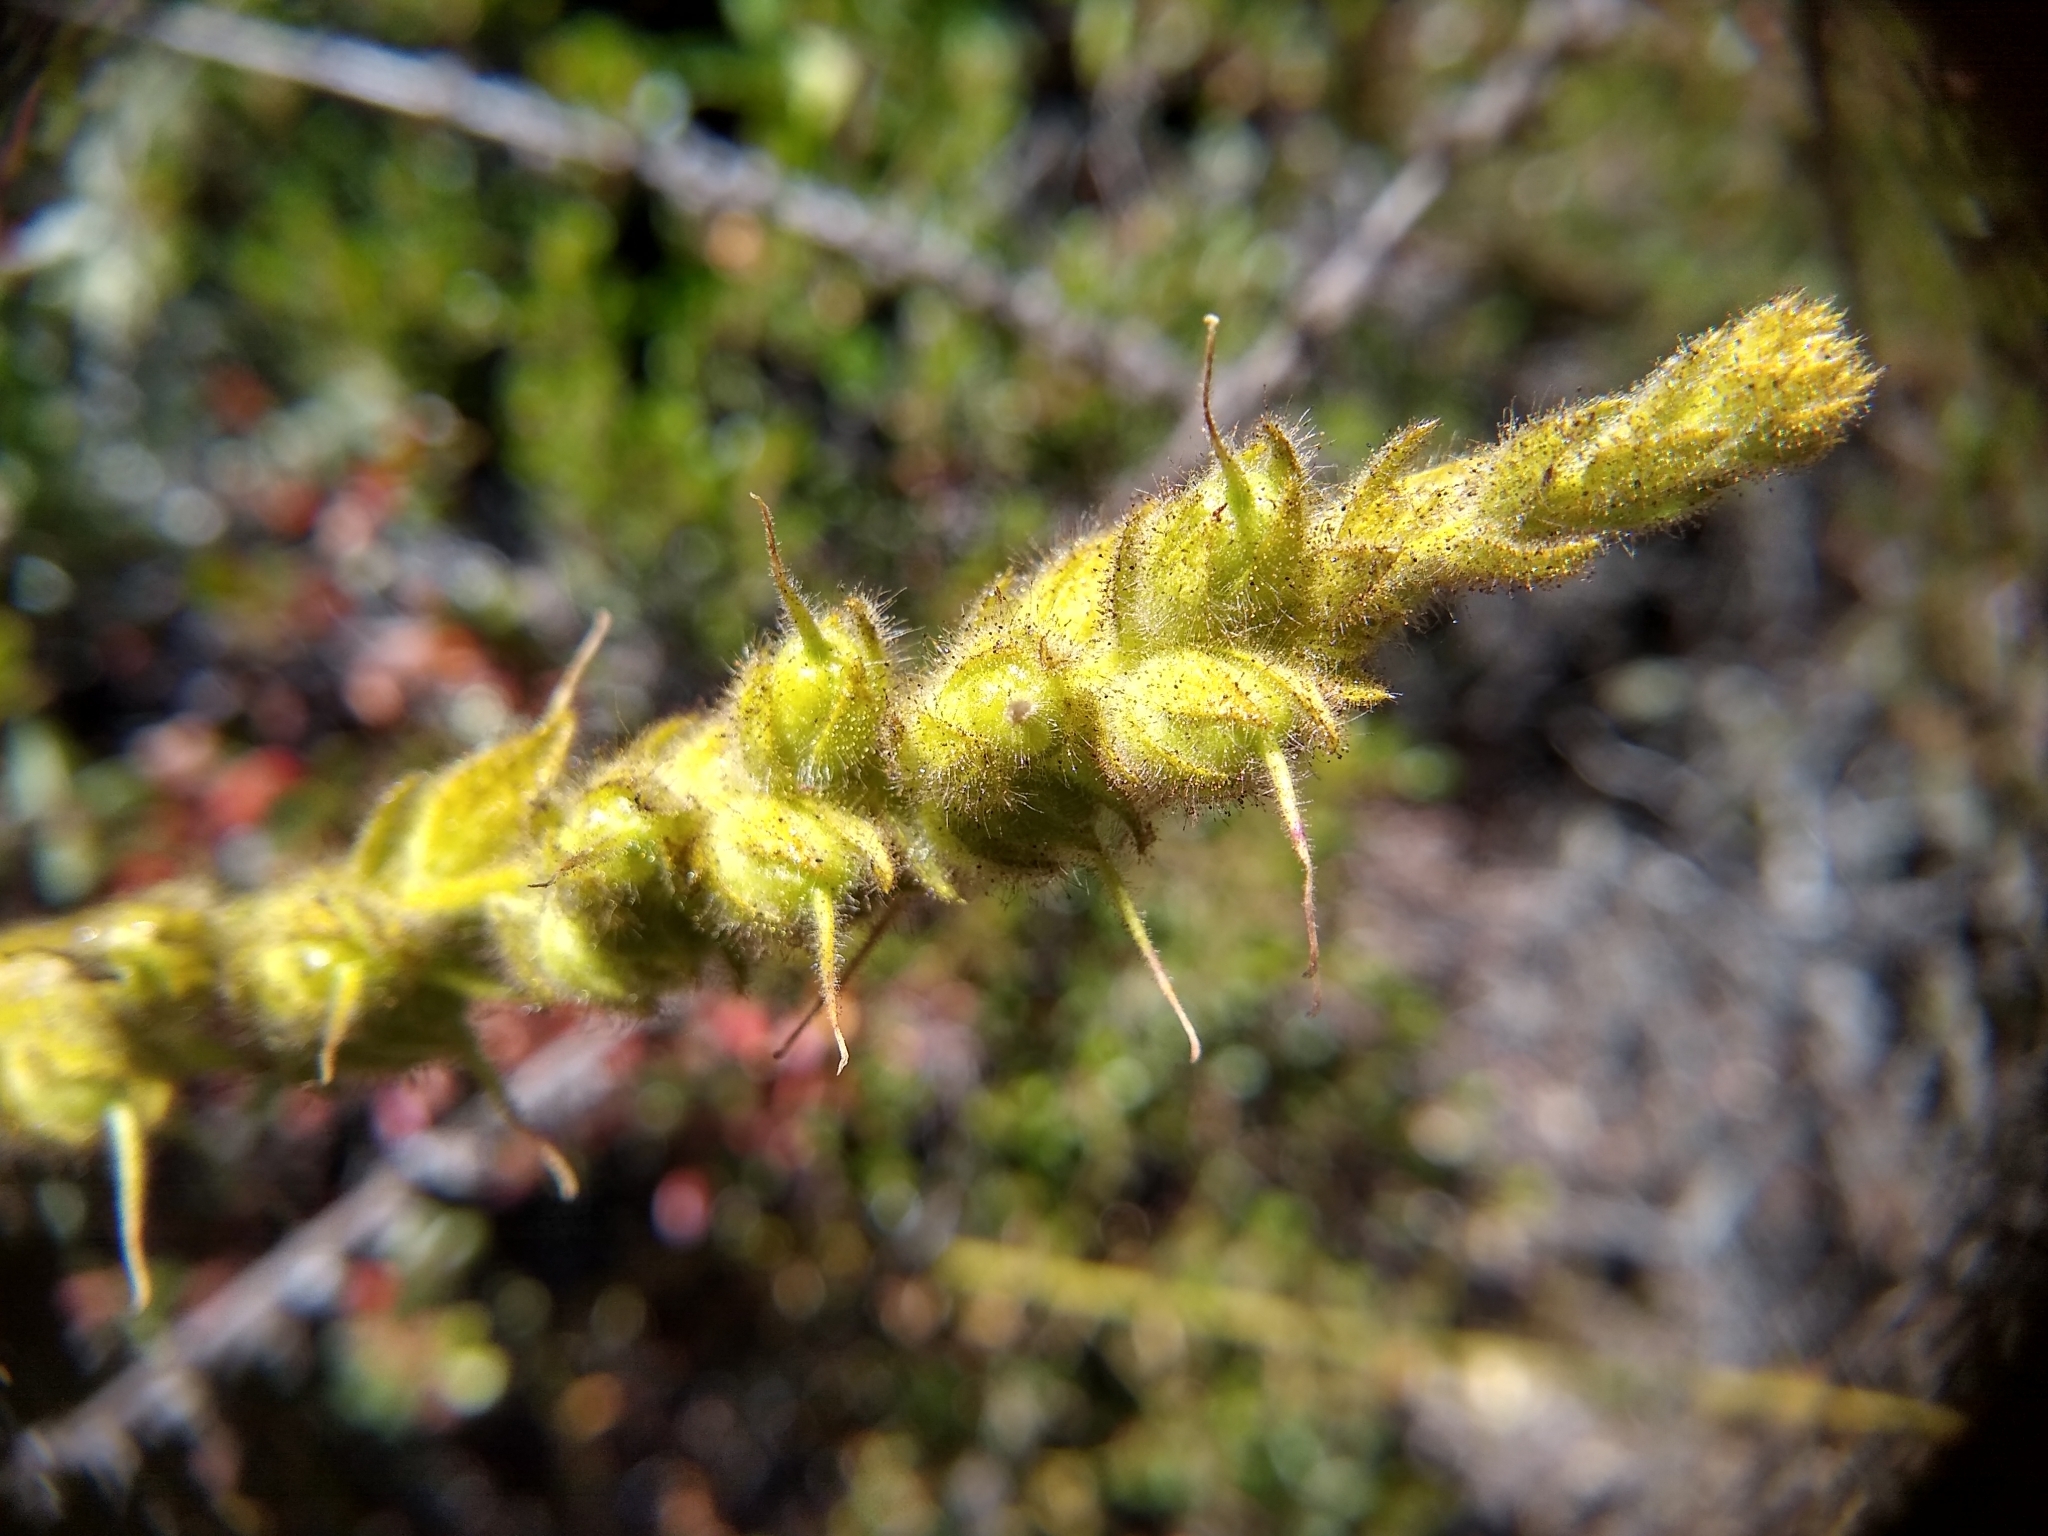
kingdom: Plantae
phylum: Tracheophyta
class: Magnoliopsida
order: Lamiales
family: Plantaginaceae
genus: Sairocarpus
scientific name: Sairocarpus multiflorus
